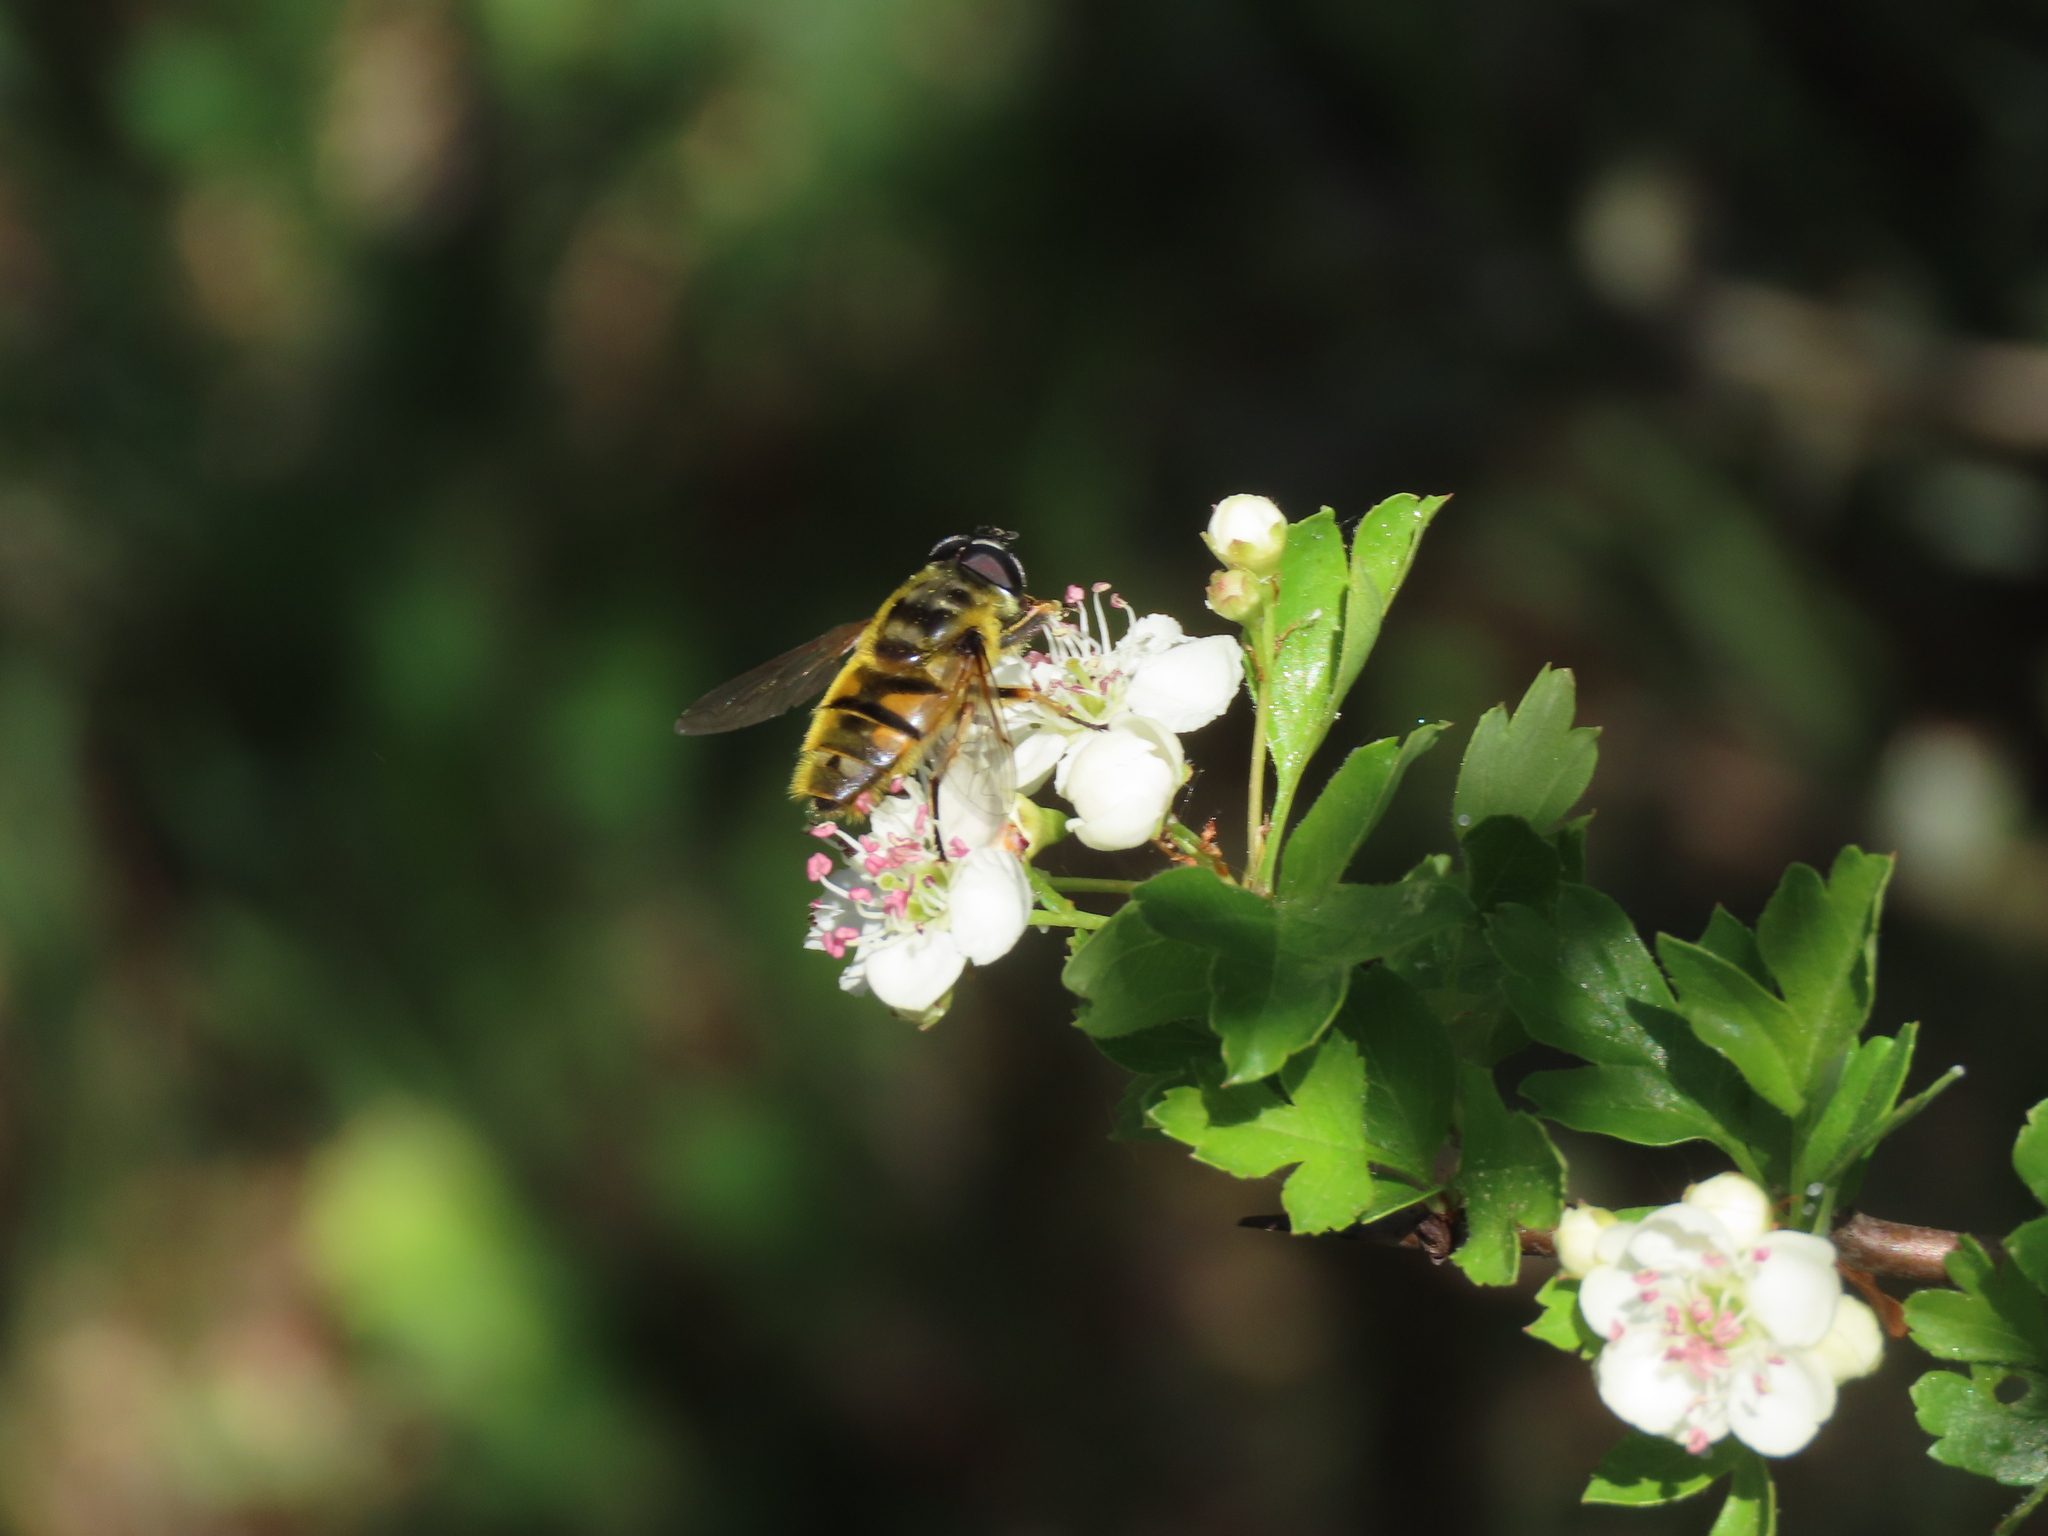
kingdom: Animalia
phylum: Arthropoda
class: Insecta
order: Diptera
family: Syrphidae
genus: Myathropa
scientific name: Myathropa florea
